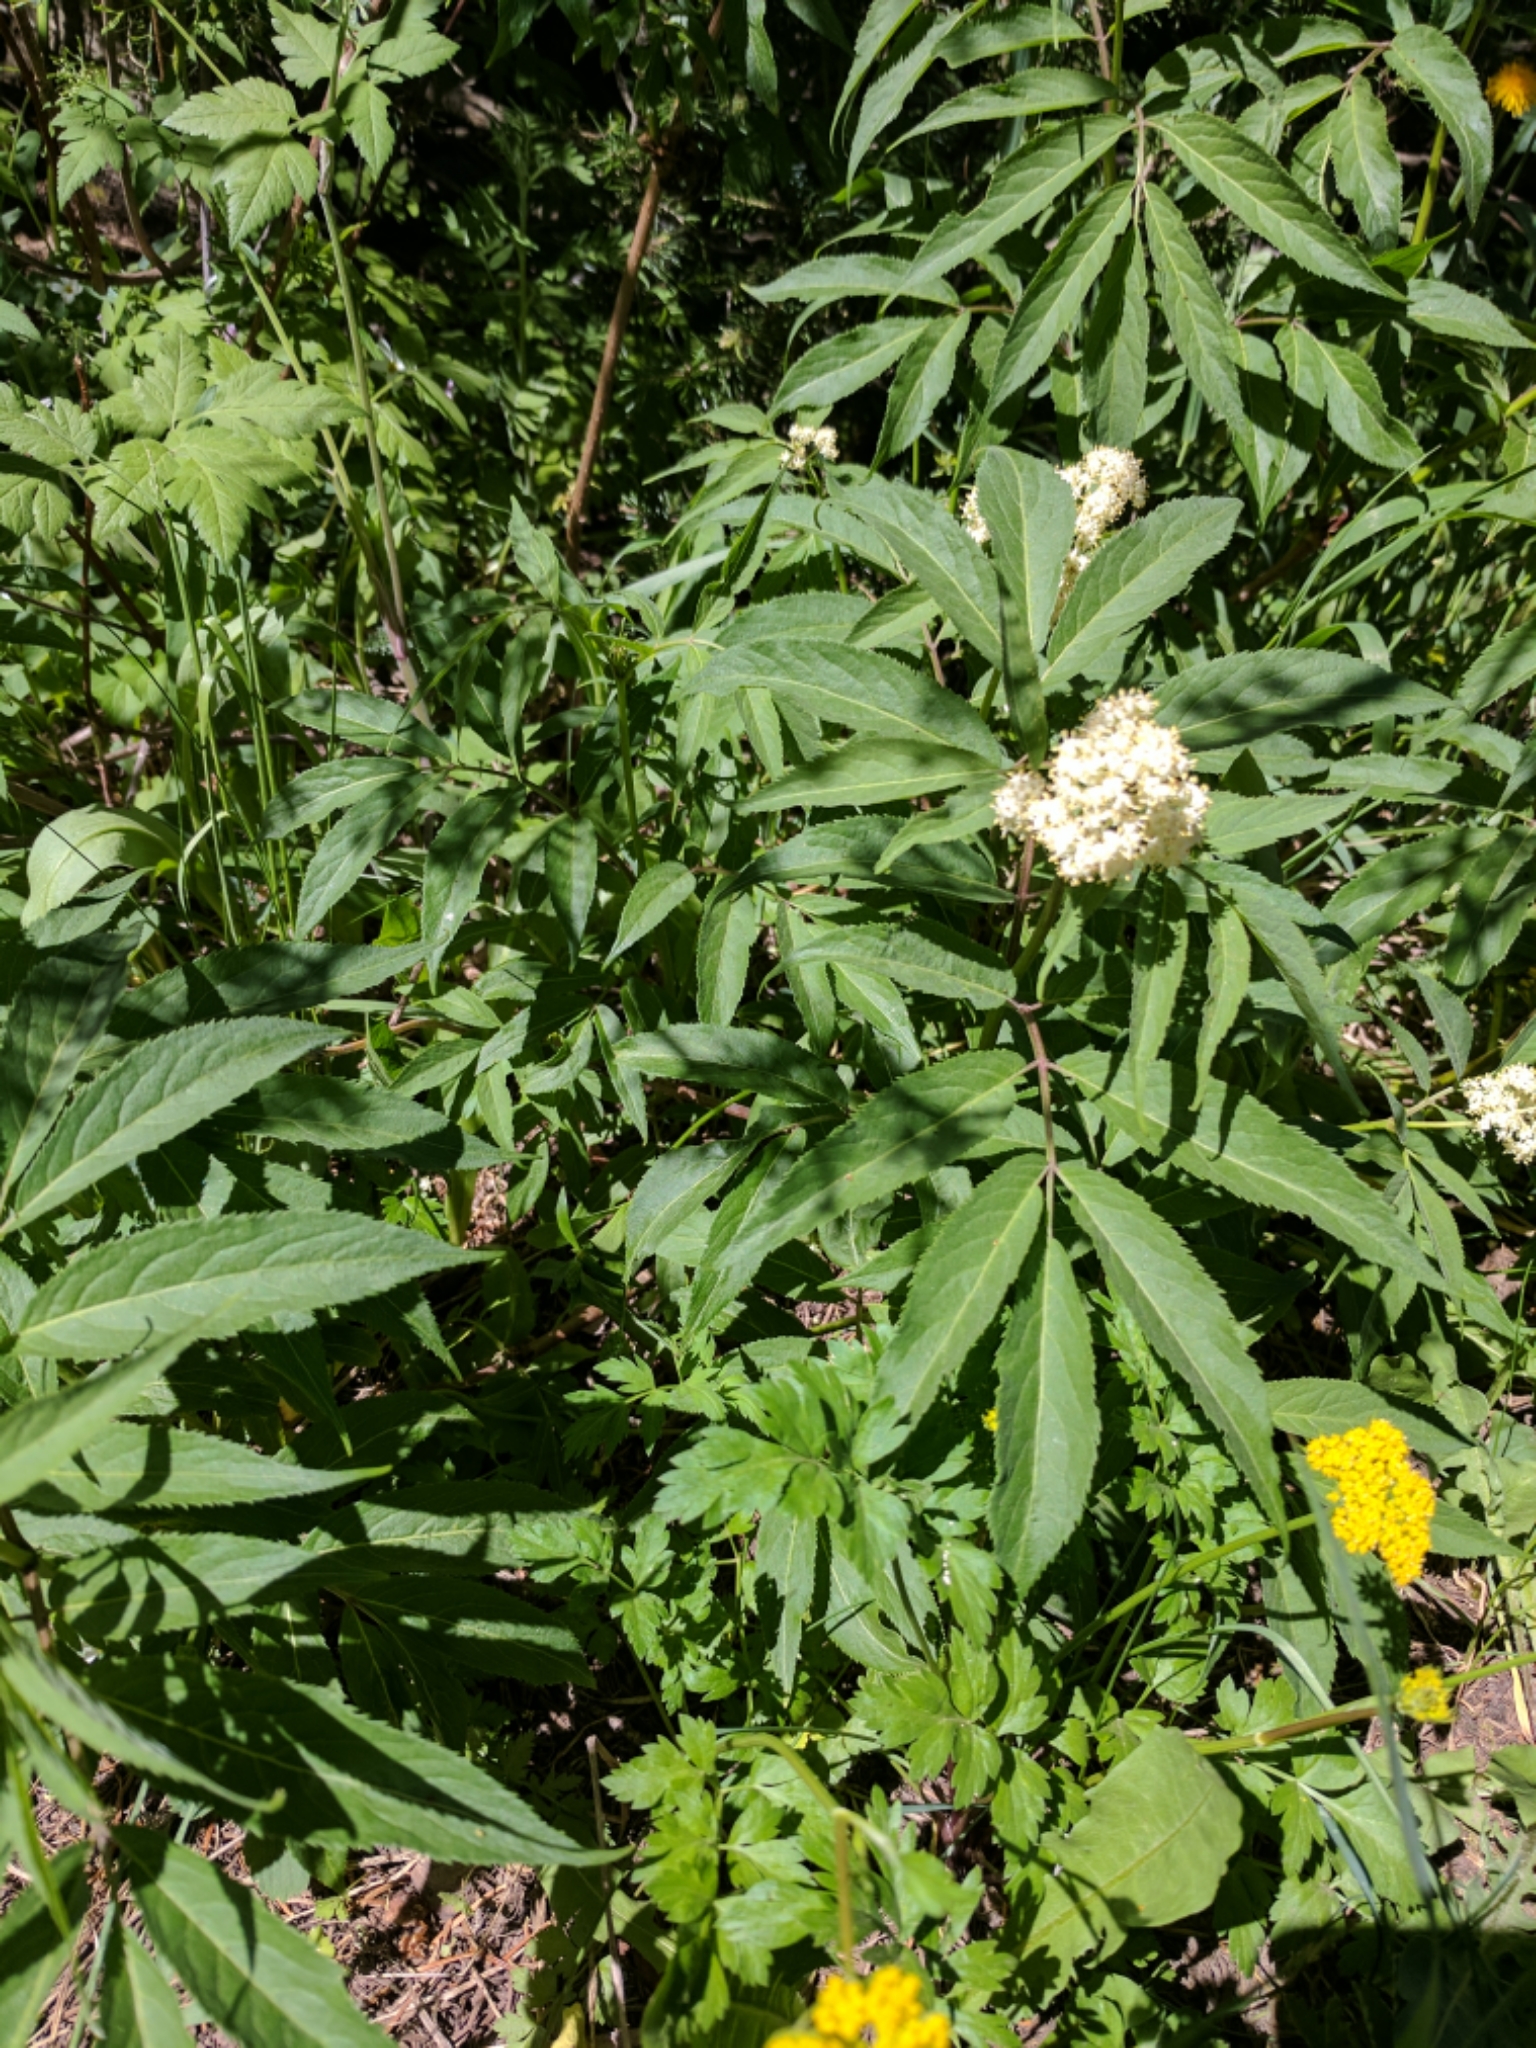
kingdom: Plantae
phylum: Tracheophyta
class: Magnoliopsida
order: Dipsacales
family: Viburnaceae
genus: Sambucus
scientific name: Sambucus racemosa
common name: Red-berried elder
